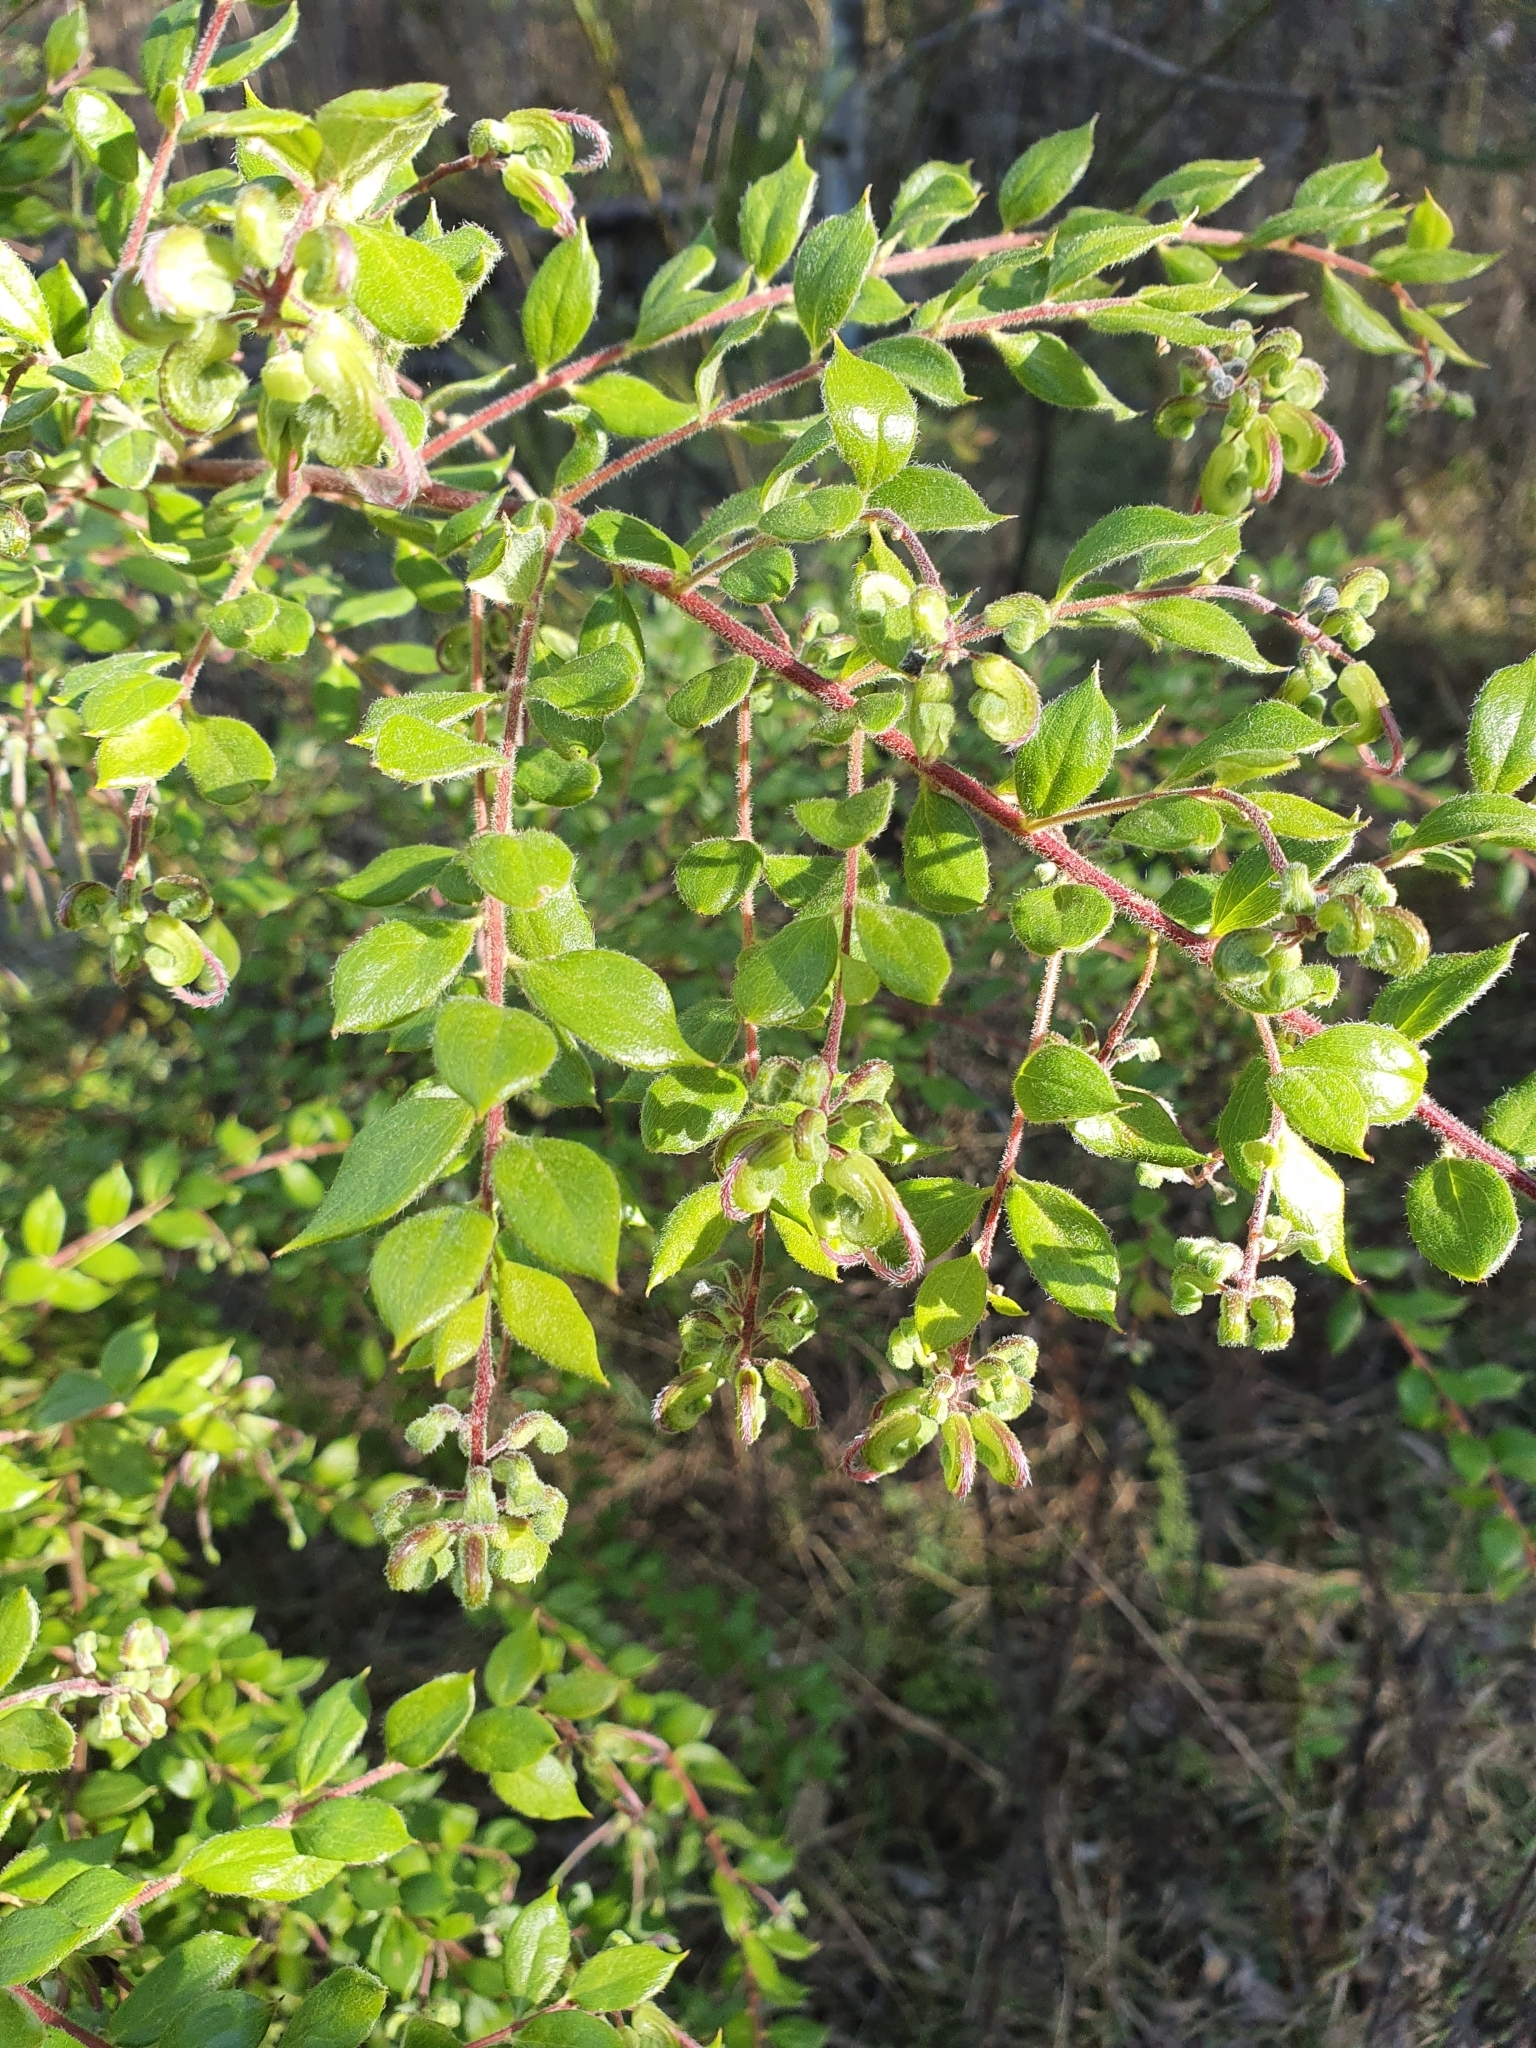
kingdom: Plantae
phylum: Tracheophyta
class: Magnoliopsida
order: Proteales
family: Proteaceae
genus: Grevillea
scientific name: Grevillea mucronulata
